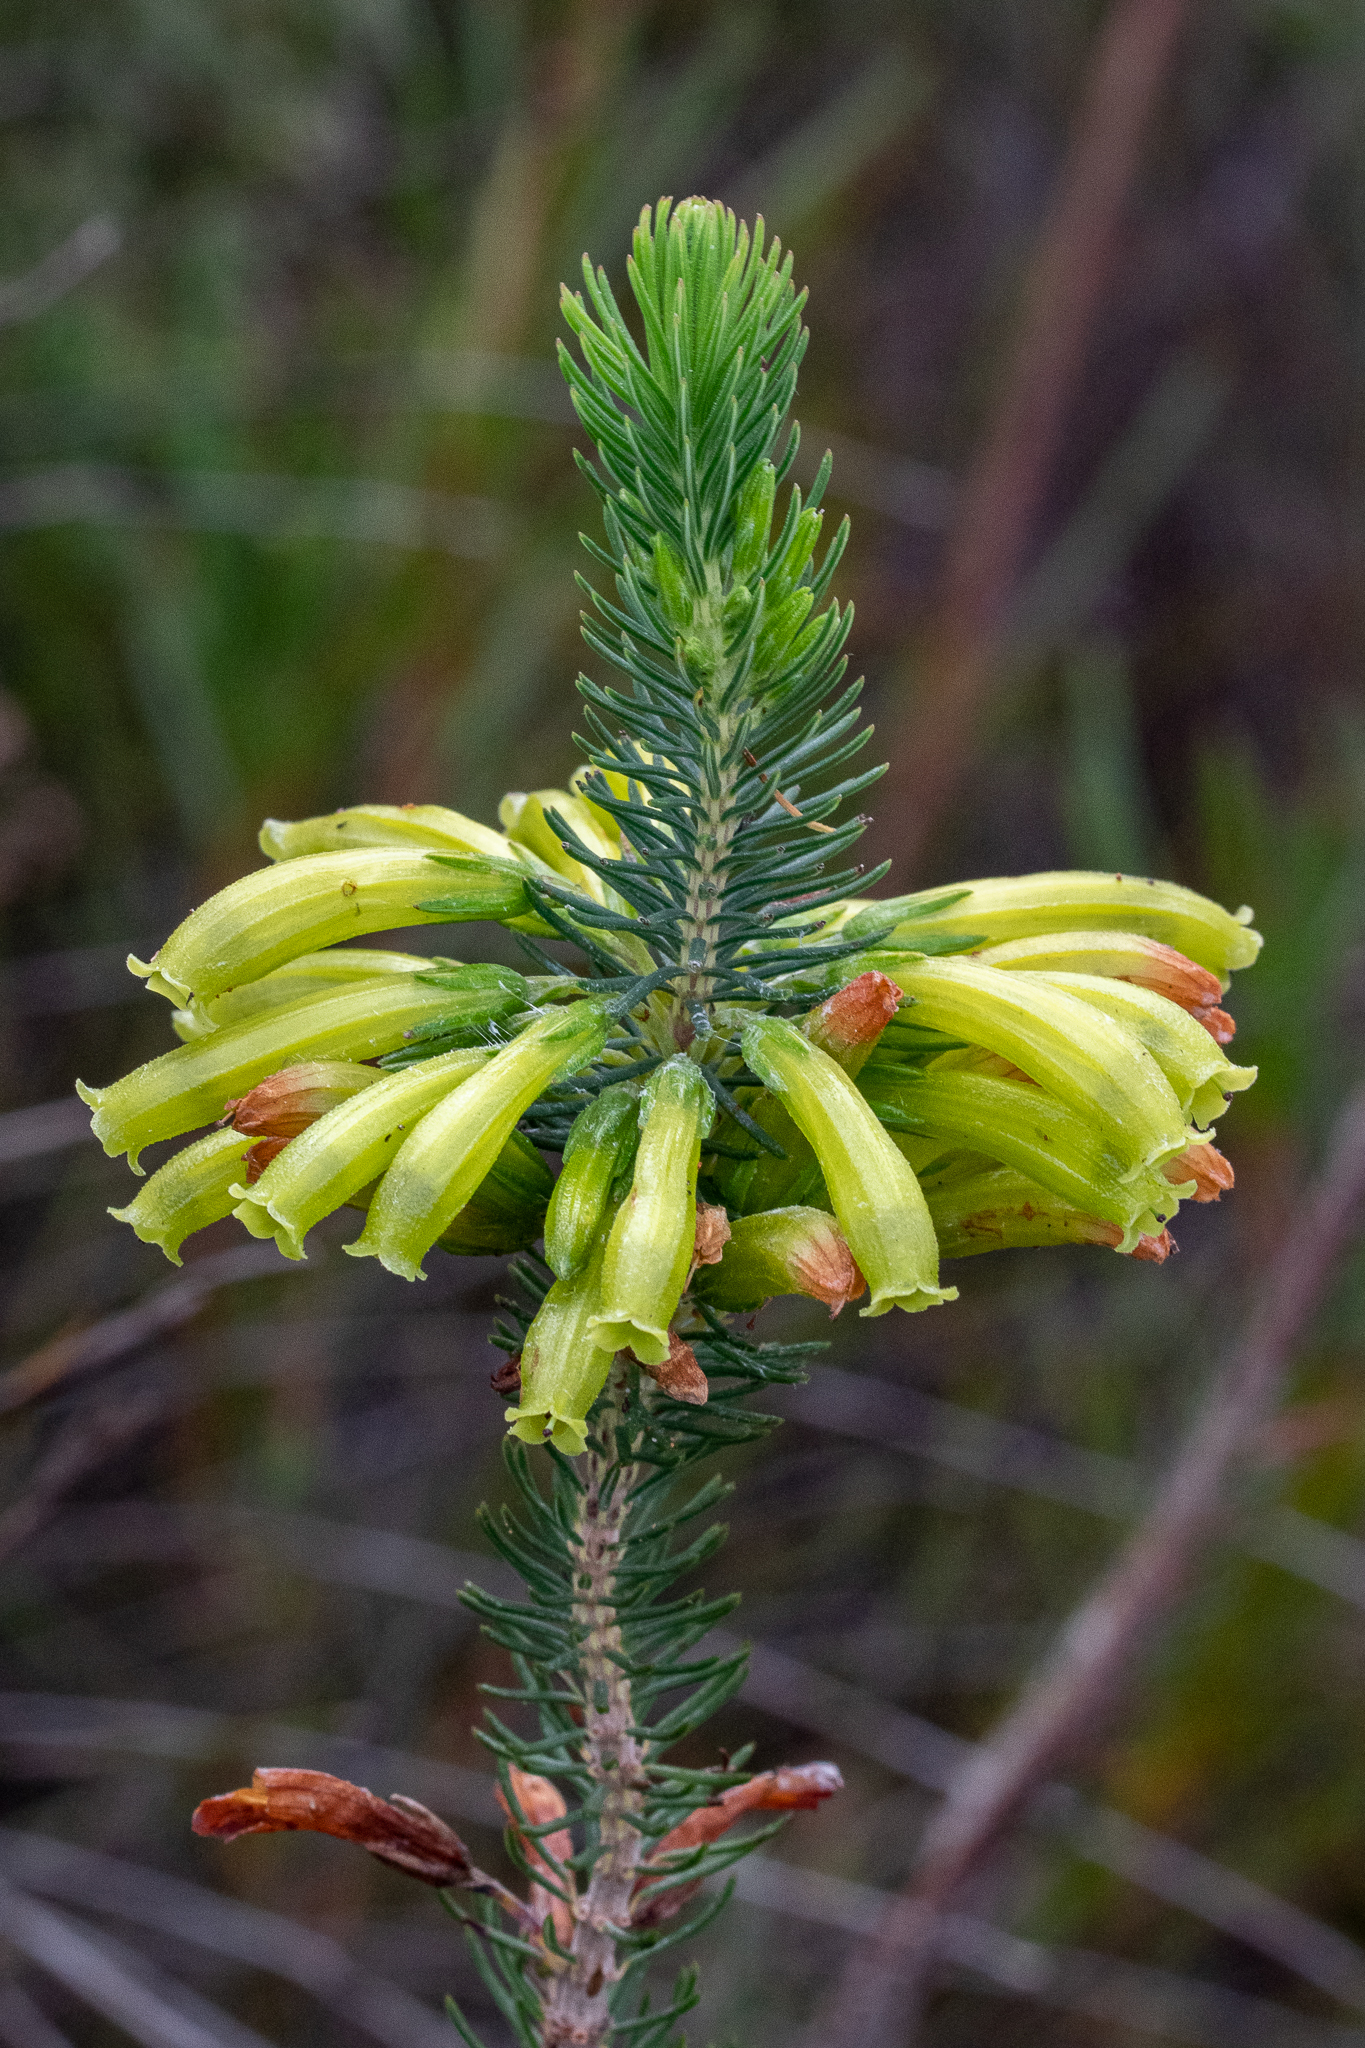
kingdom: Plantae
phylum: Tracheophyta
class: Magnoliopsida
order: Ericales
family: Ericaceae
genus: Erica
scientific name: Erica thomae
